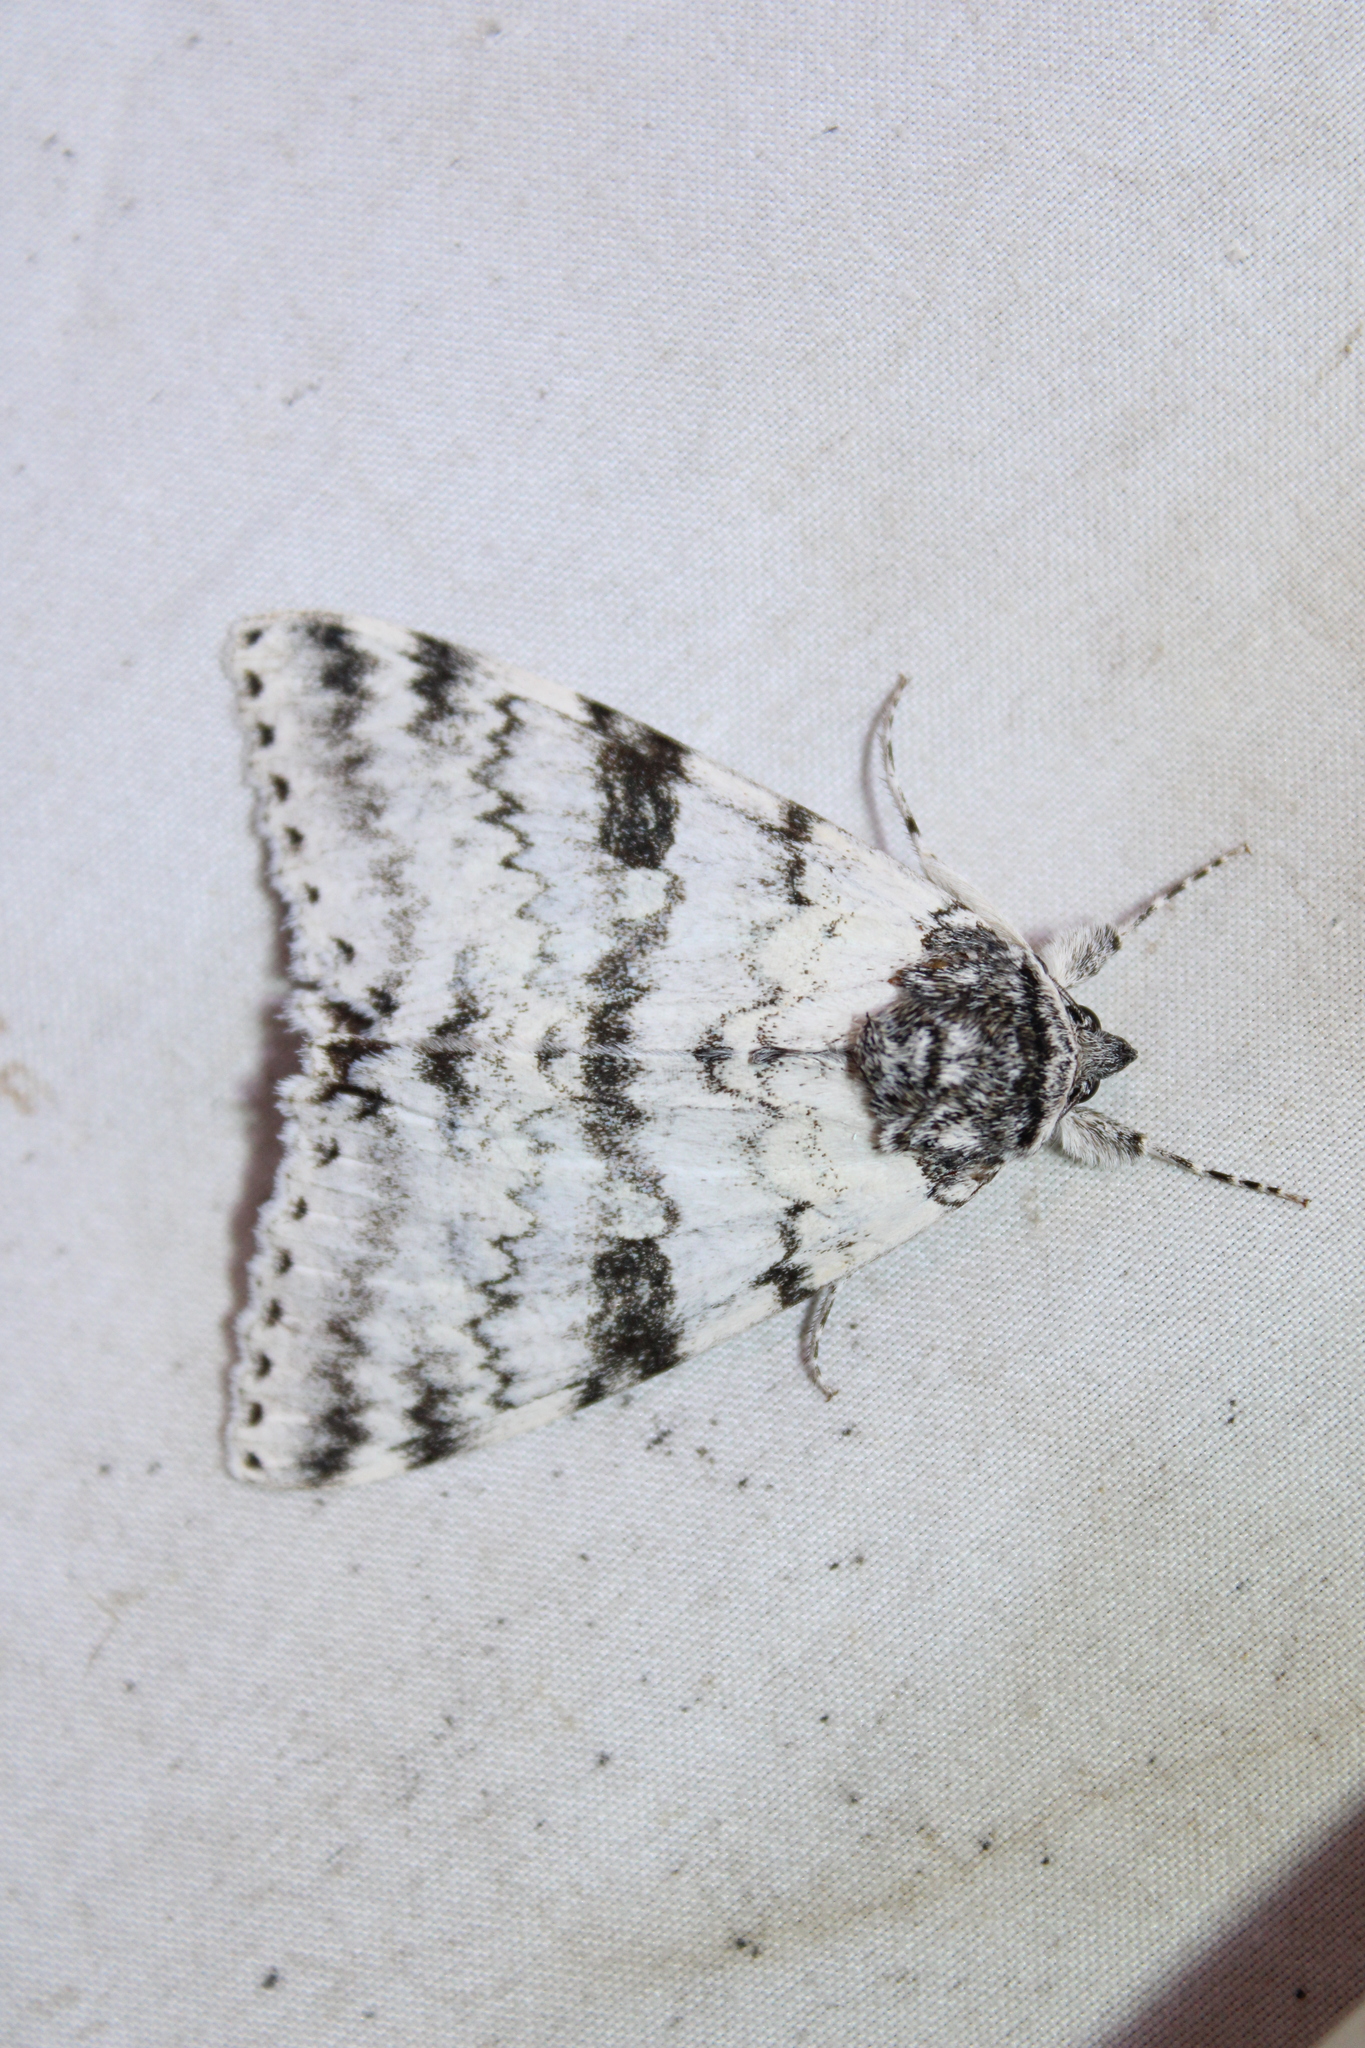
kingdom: Animalia
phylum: Arthropoda
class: Insecta
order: Lepidoptera
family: Erebidae
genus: Catocala
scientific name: Catocala relicta
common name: White underwing
